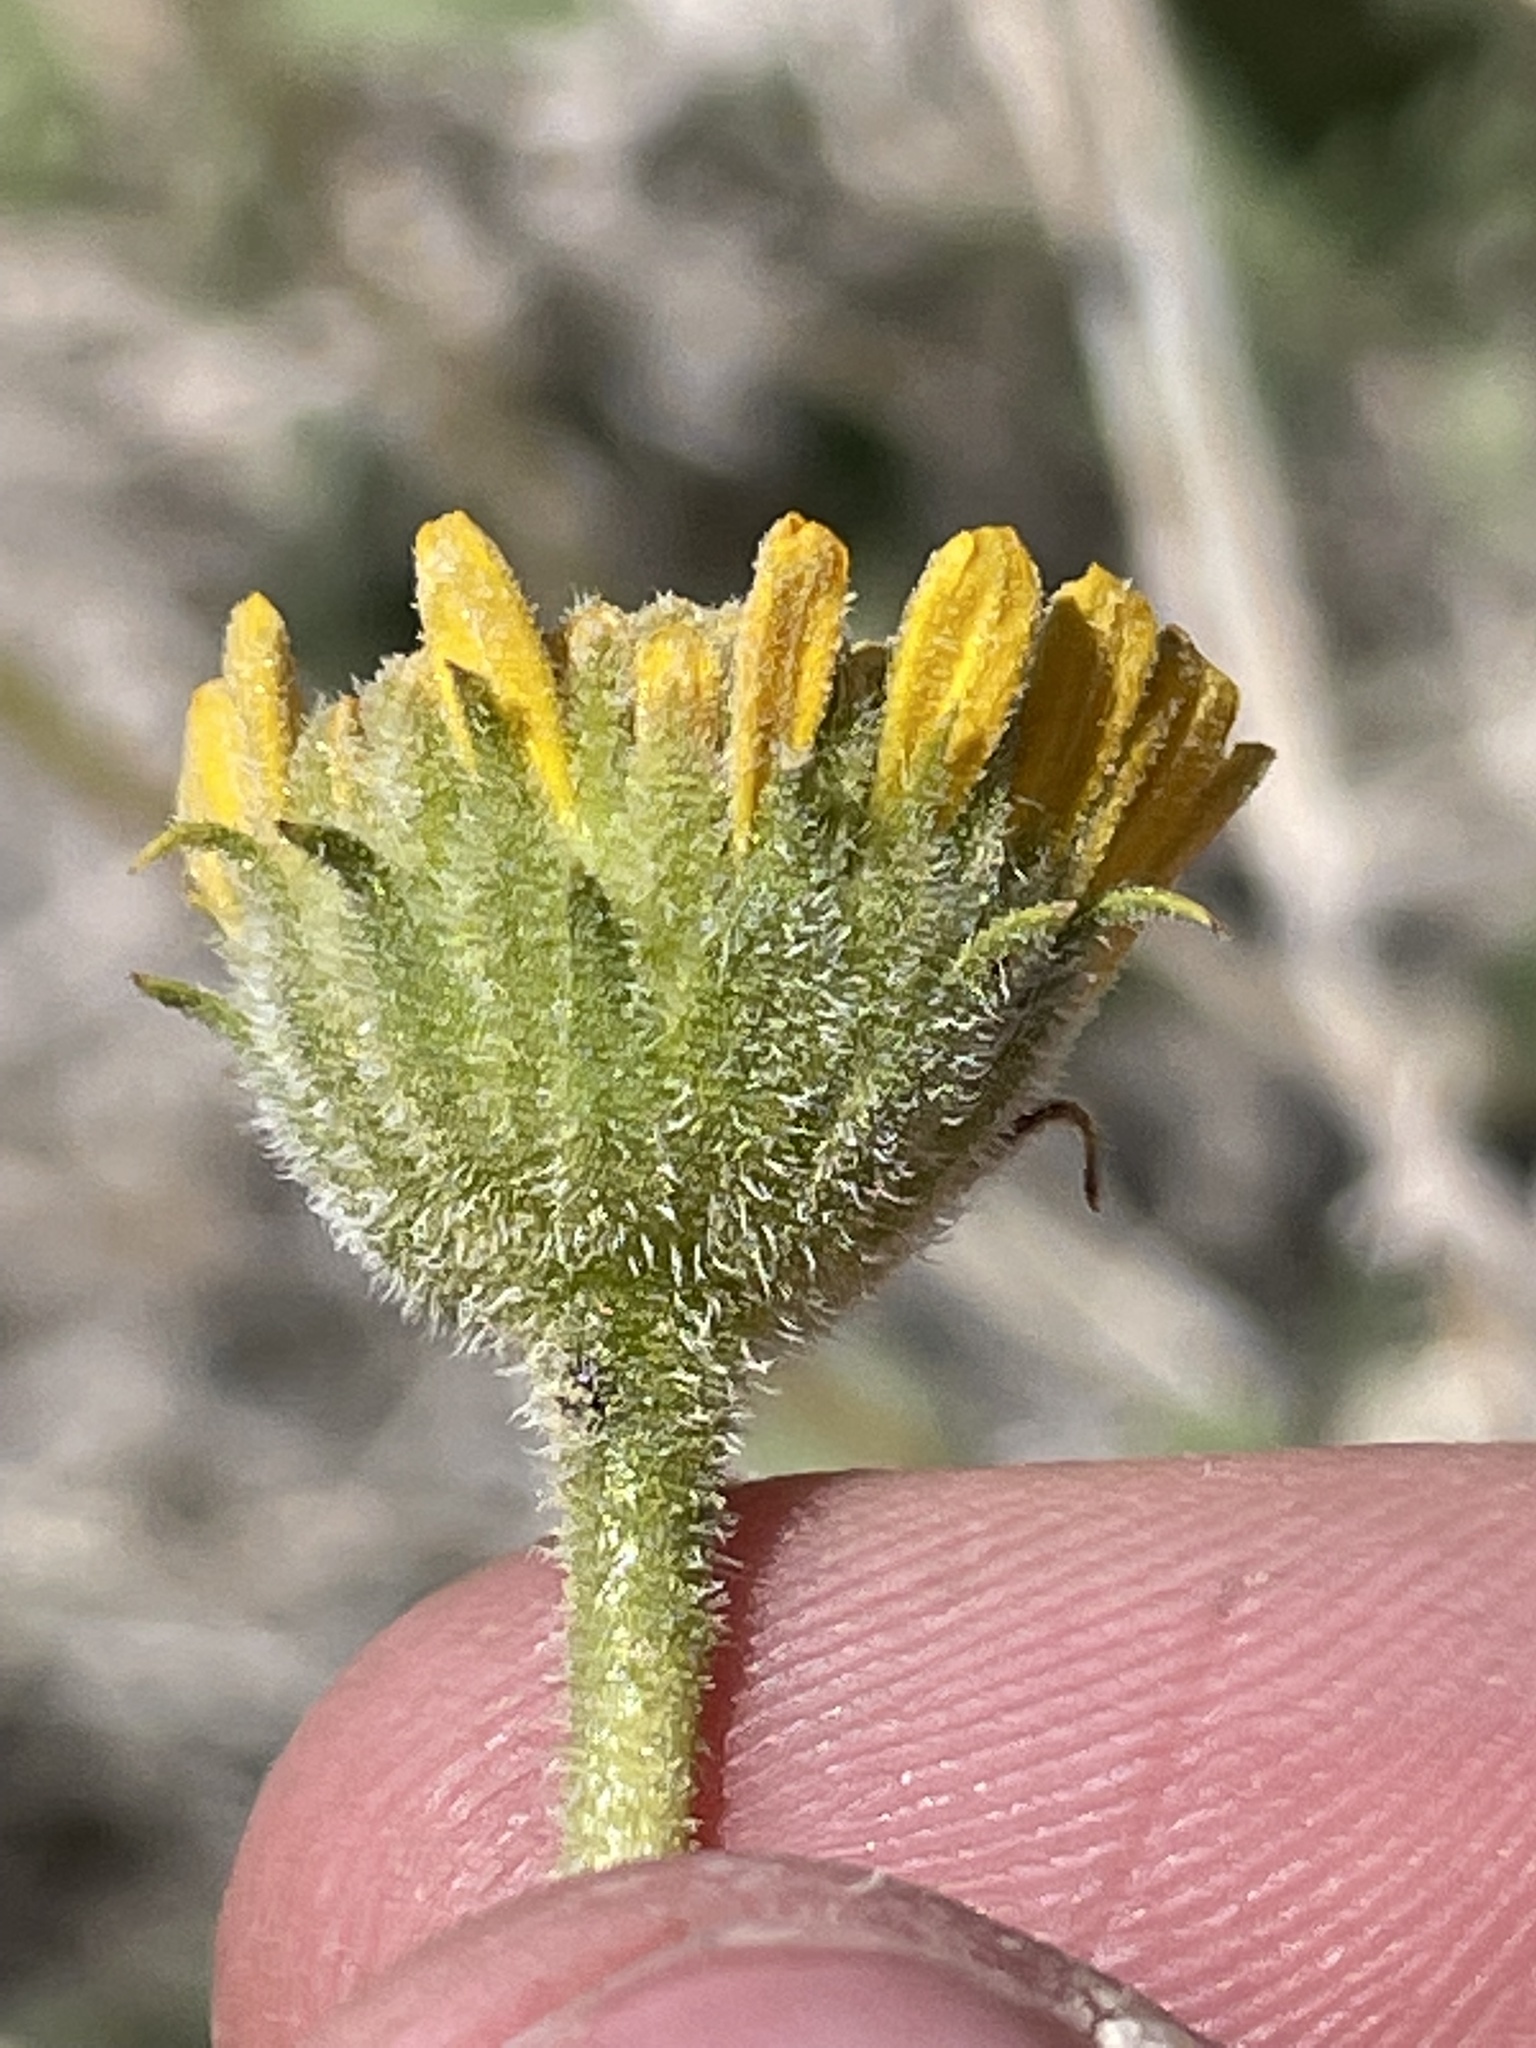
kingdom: Plantae
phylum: Tracheophyta
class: Magnoliopsida
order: Asterales
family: Asteraceae
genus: Encelia
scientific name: Encelia virginensis
